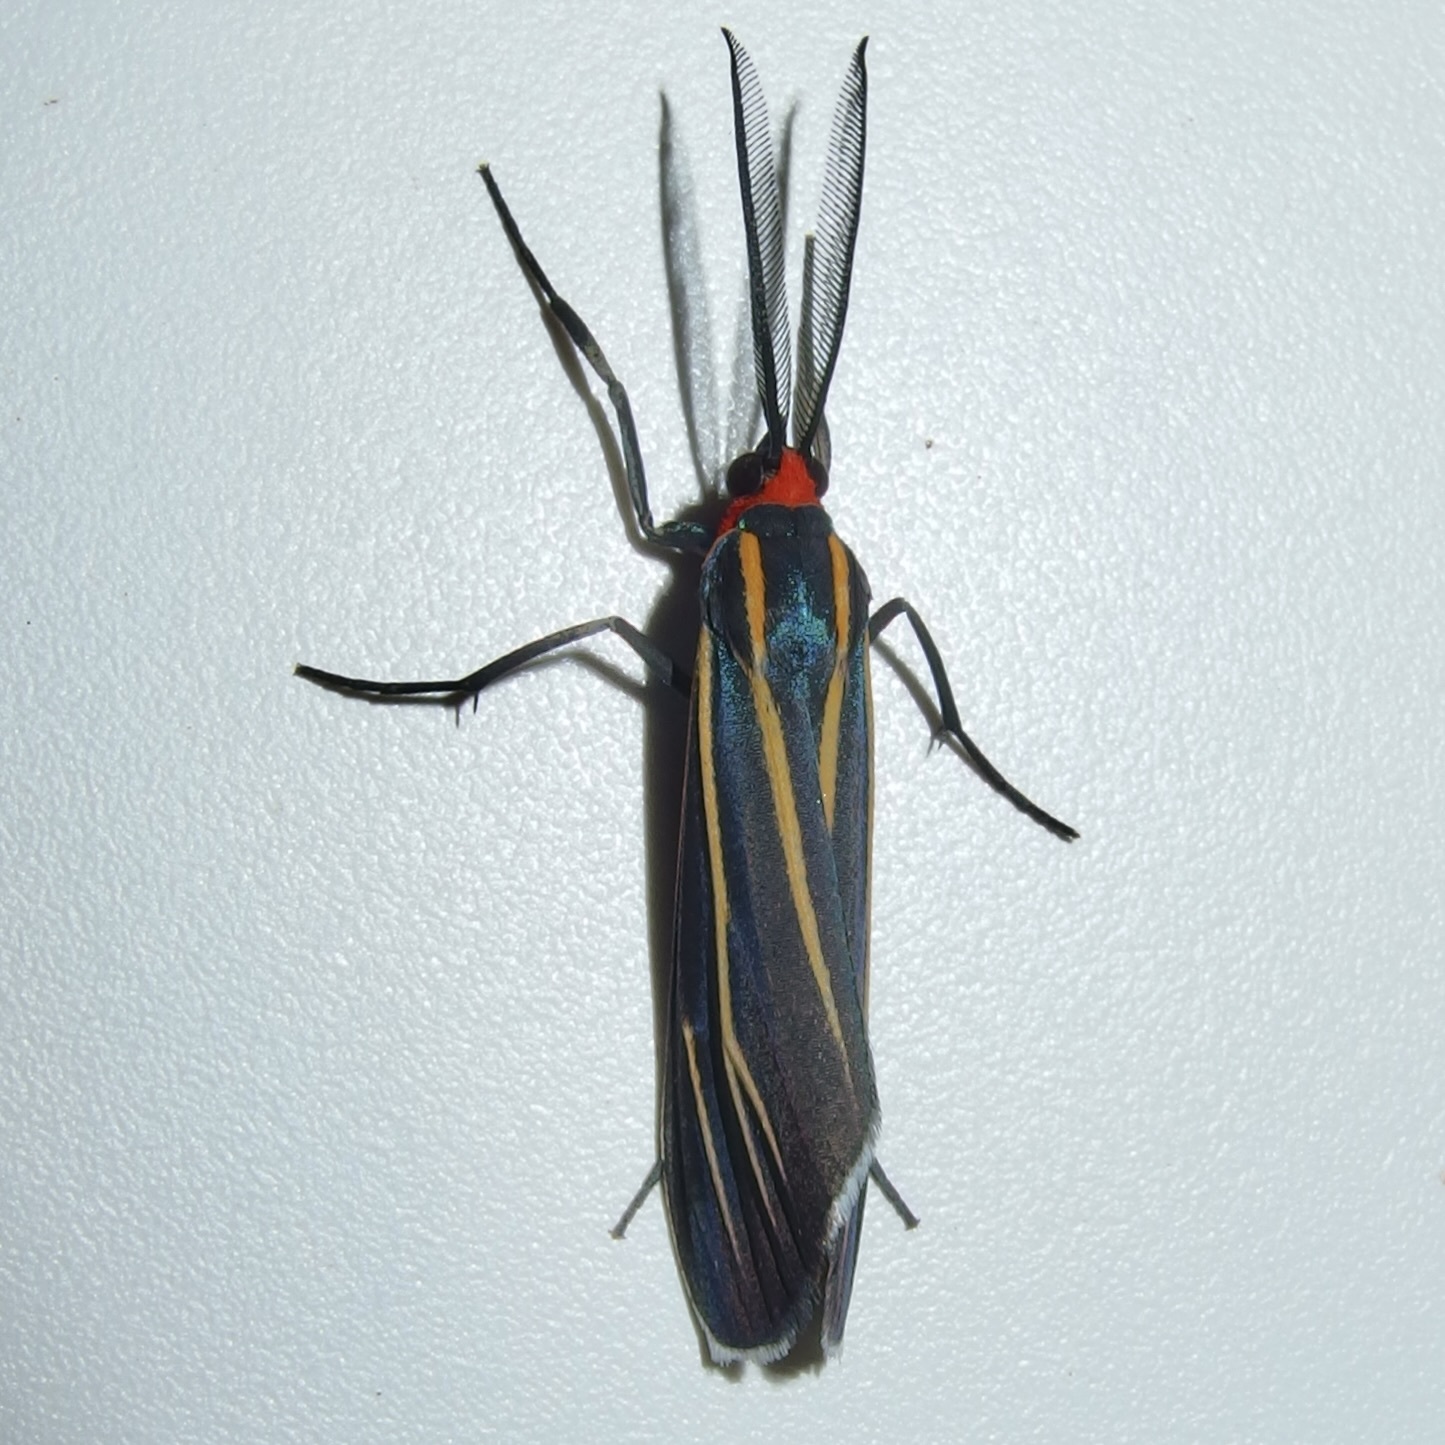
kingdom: Animalia
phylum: Arthropoda
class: Insecta
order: Lepidoptera
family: Erebidae
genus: Ctenucha
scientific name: Ctenucha venosa
